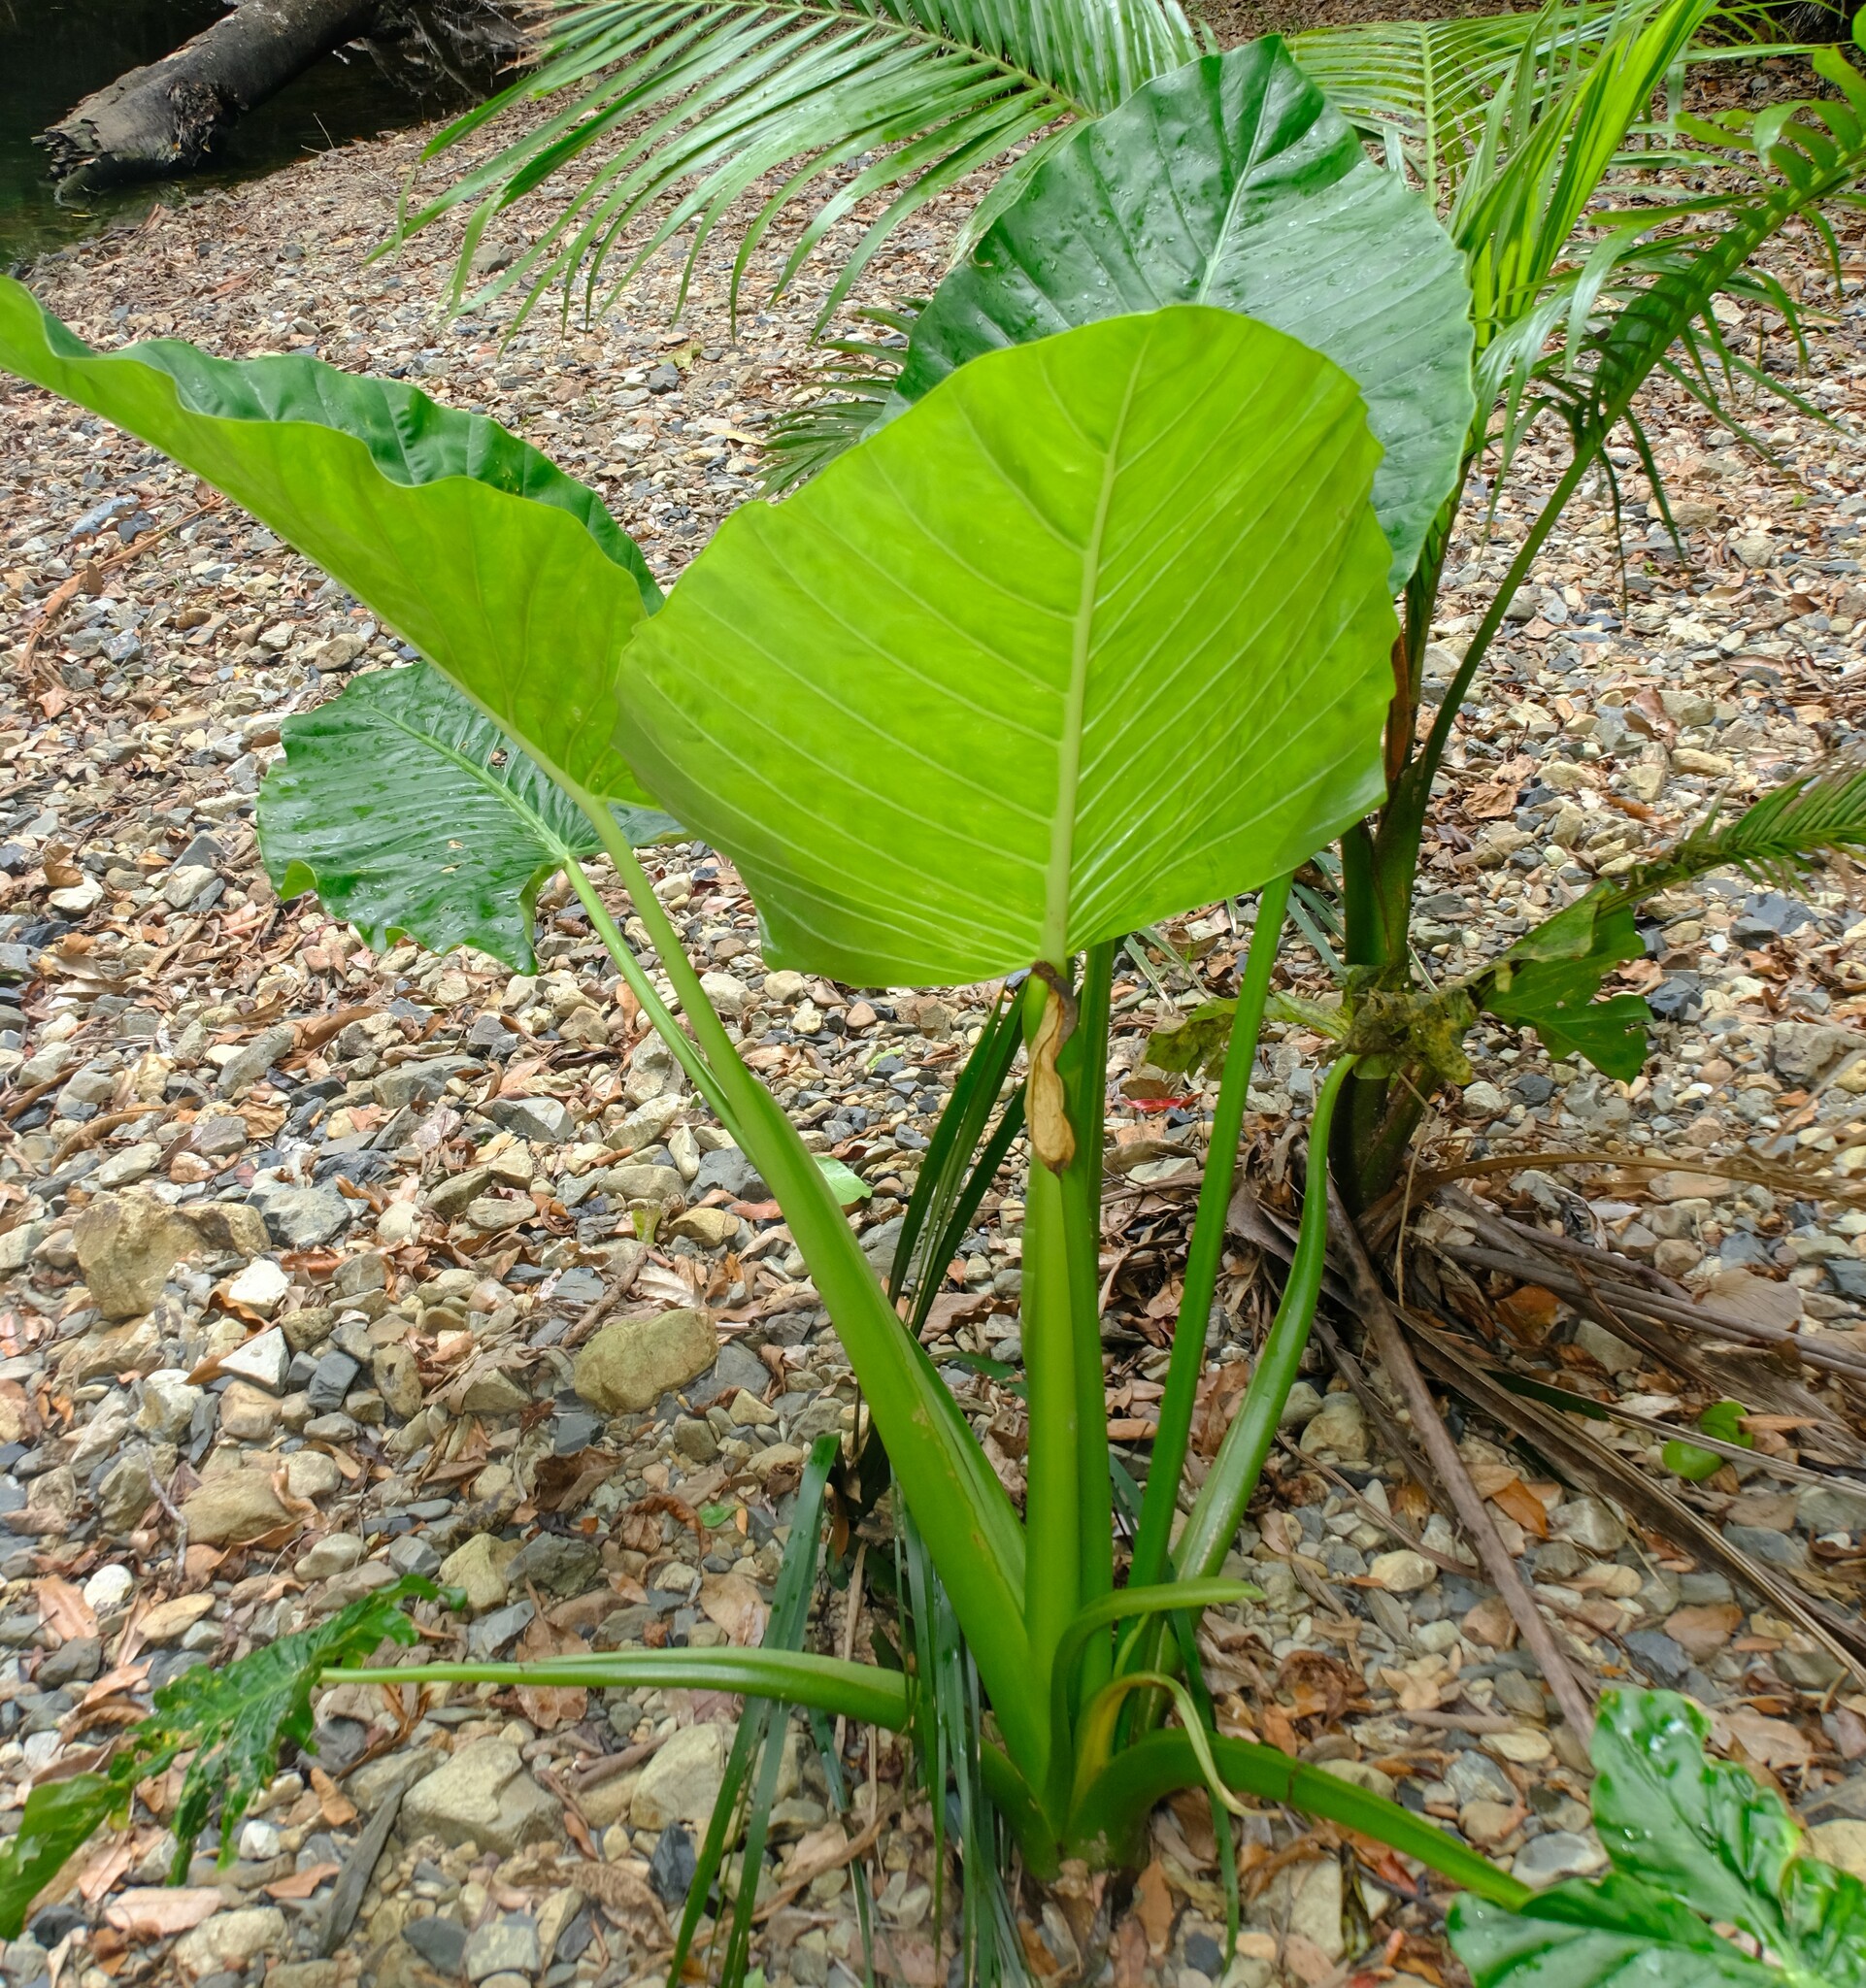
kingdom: Plantae
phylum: Tracheophyta
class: Liliopsida
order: Alismatales
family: Araceae
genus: Alocasia
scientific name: Alocasia brisbanensis
